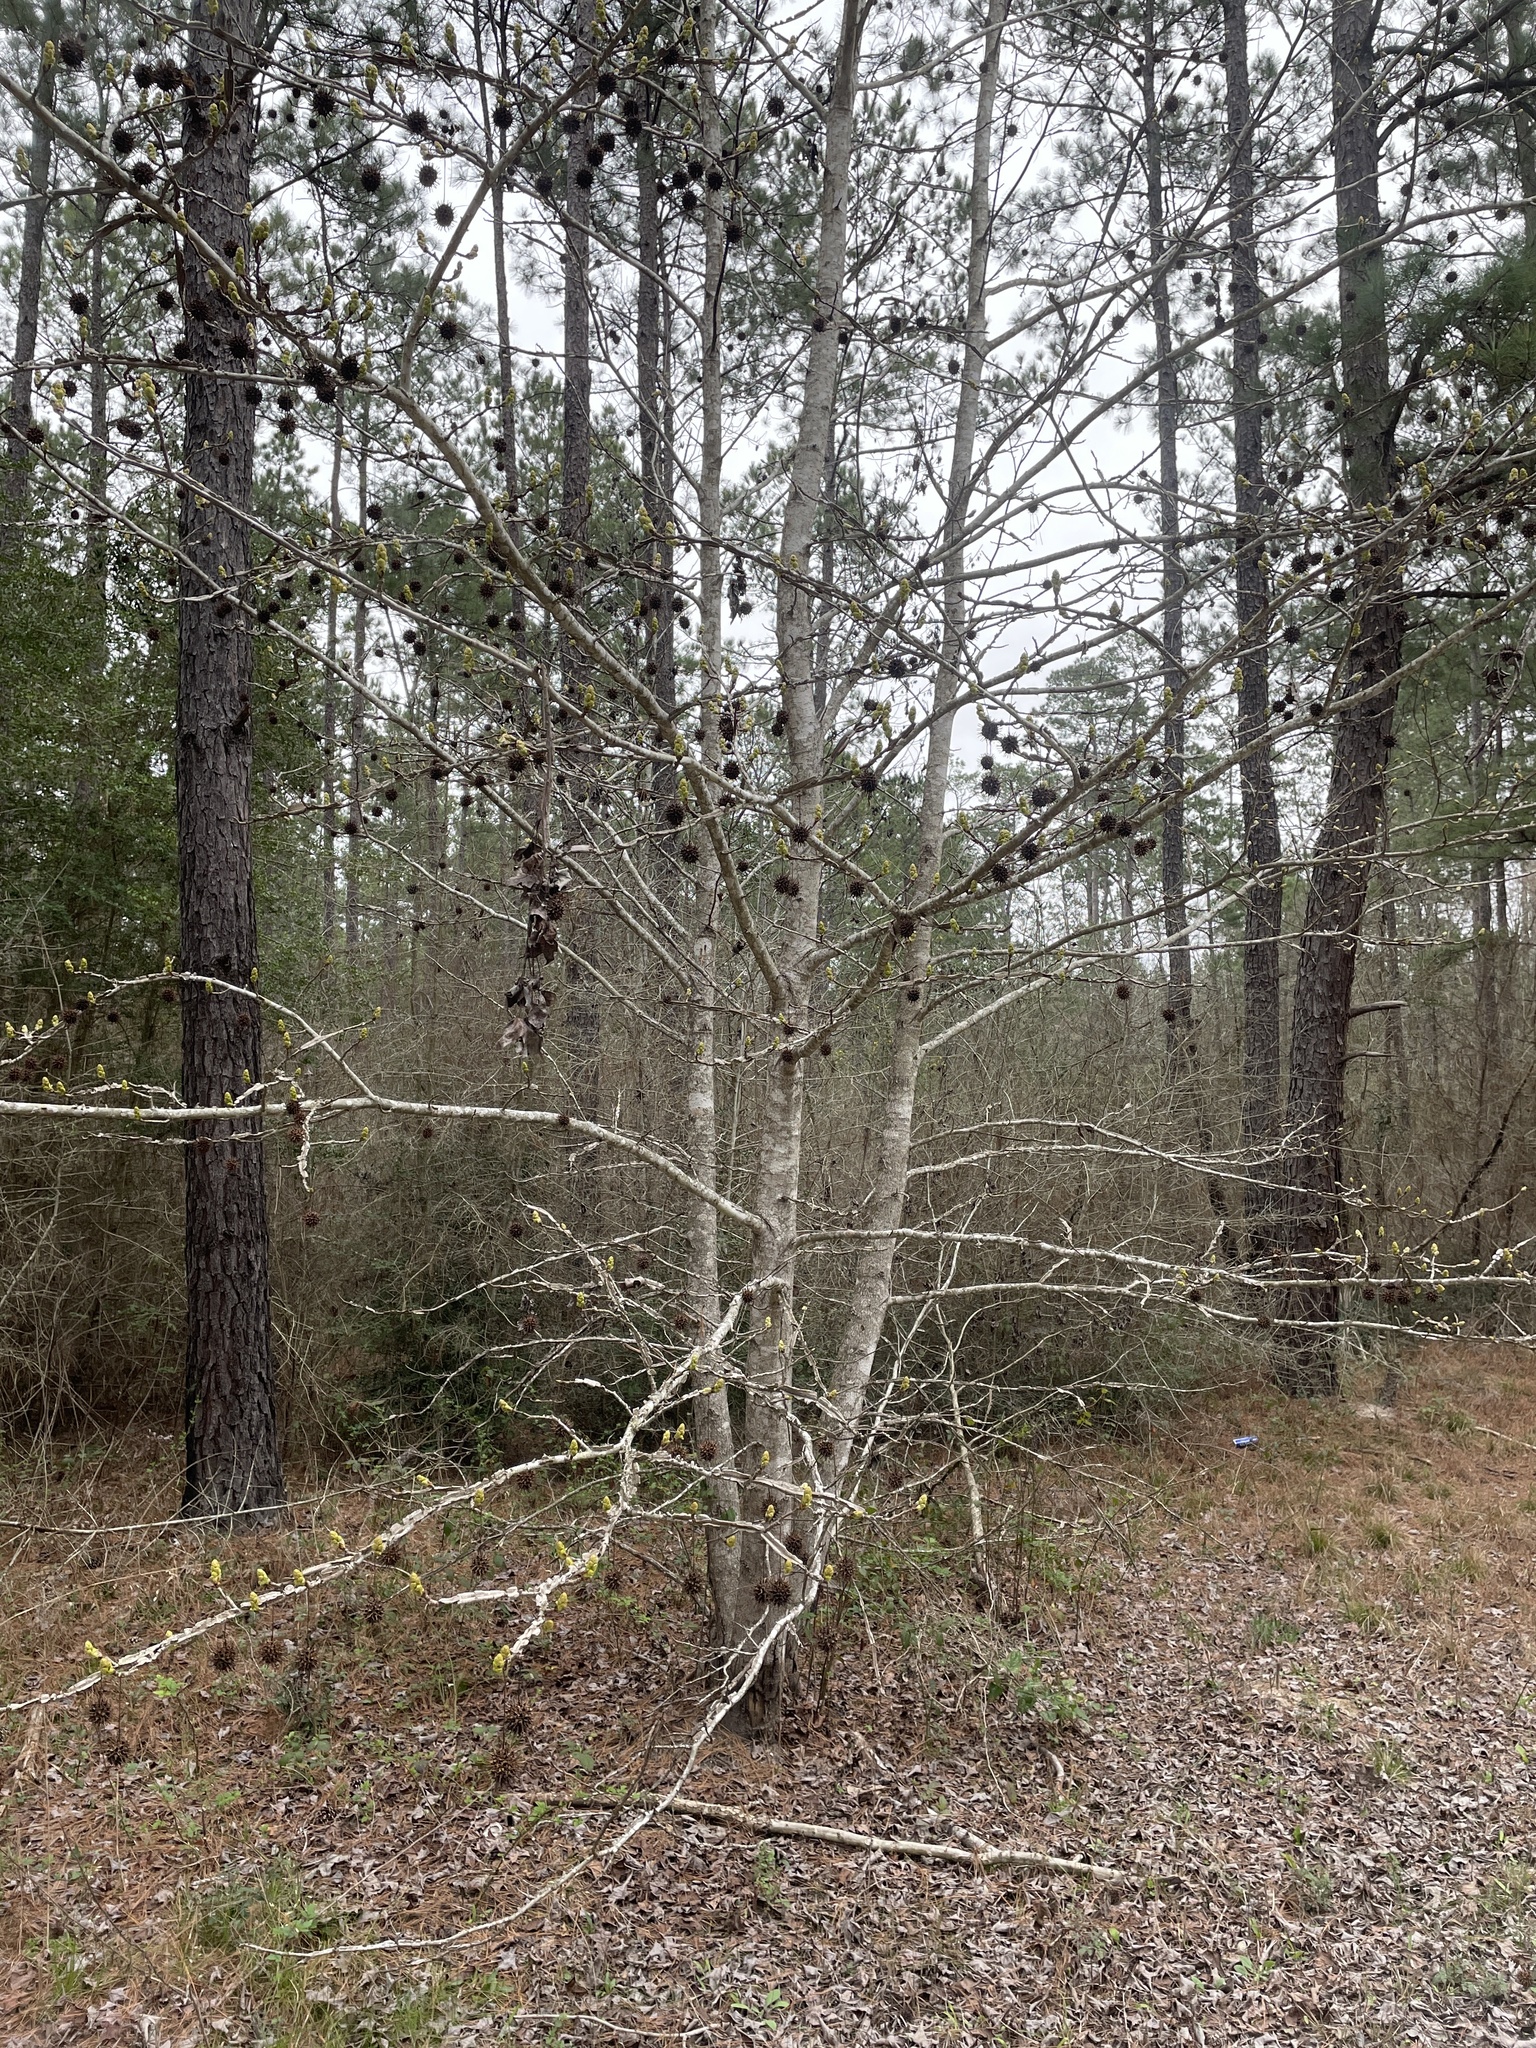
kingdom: Plantae
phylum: Tracheophyta
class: Magnoliopsida
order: Saxifragales
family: Altingiaceae
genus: Liquidambar
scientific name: Liquidambar styraciflua
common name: Sweet gum
